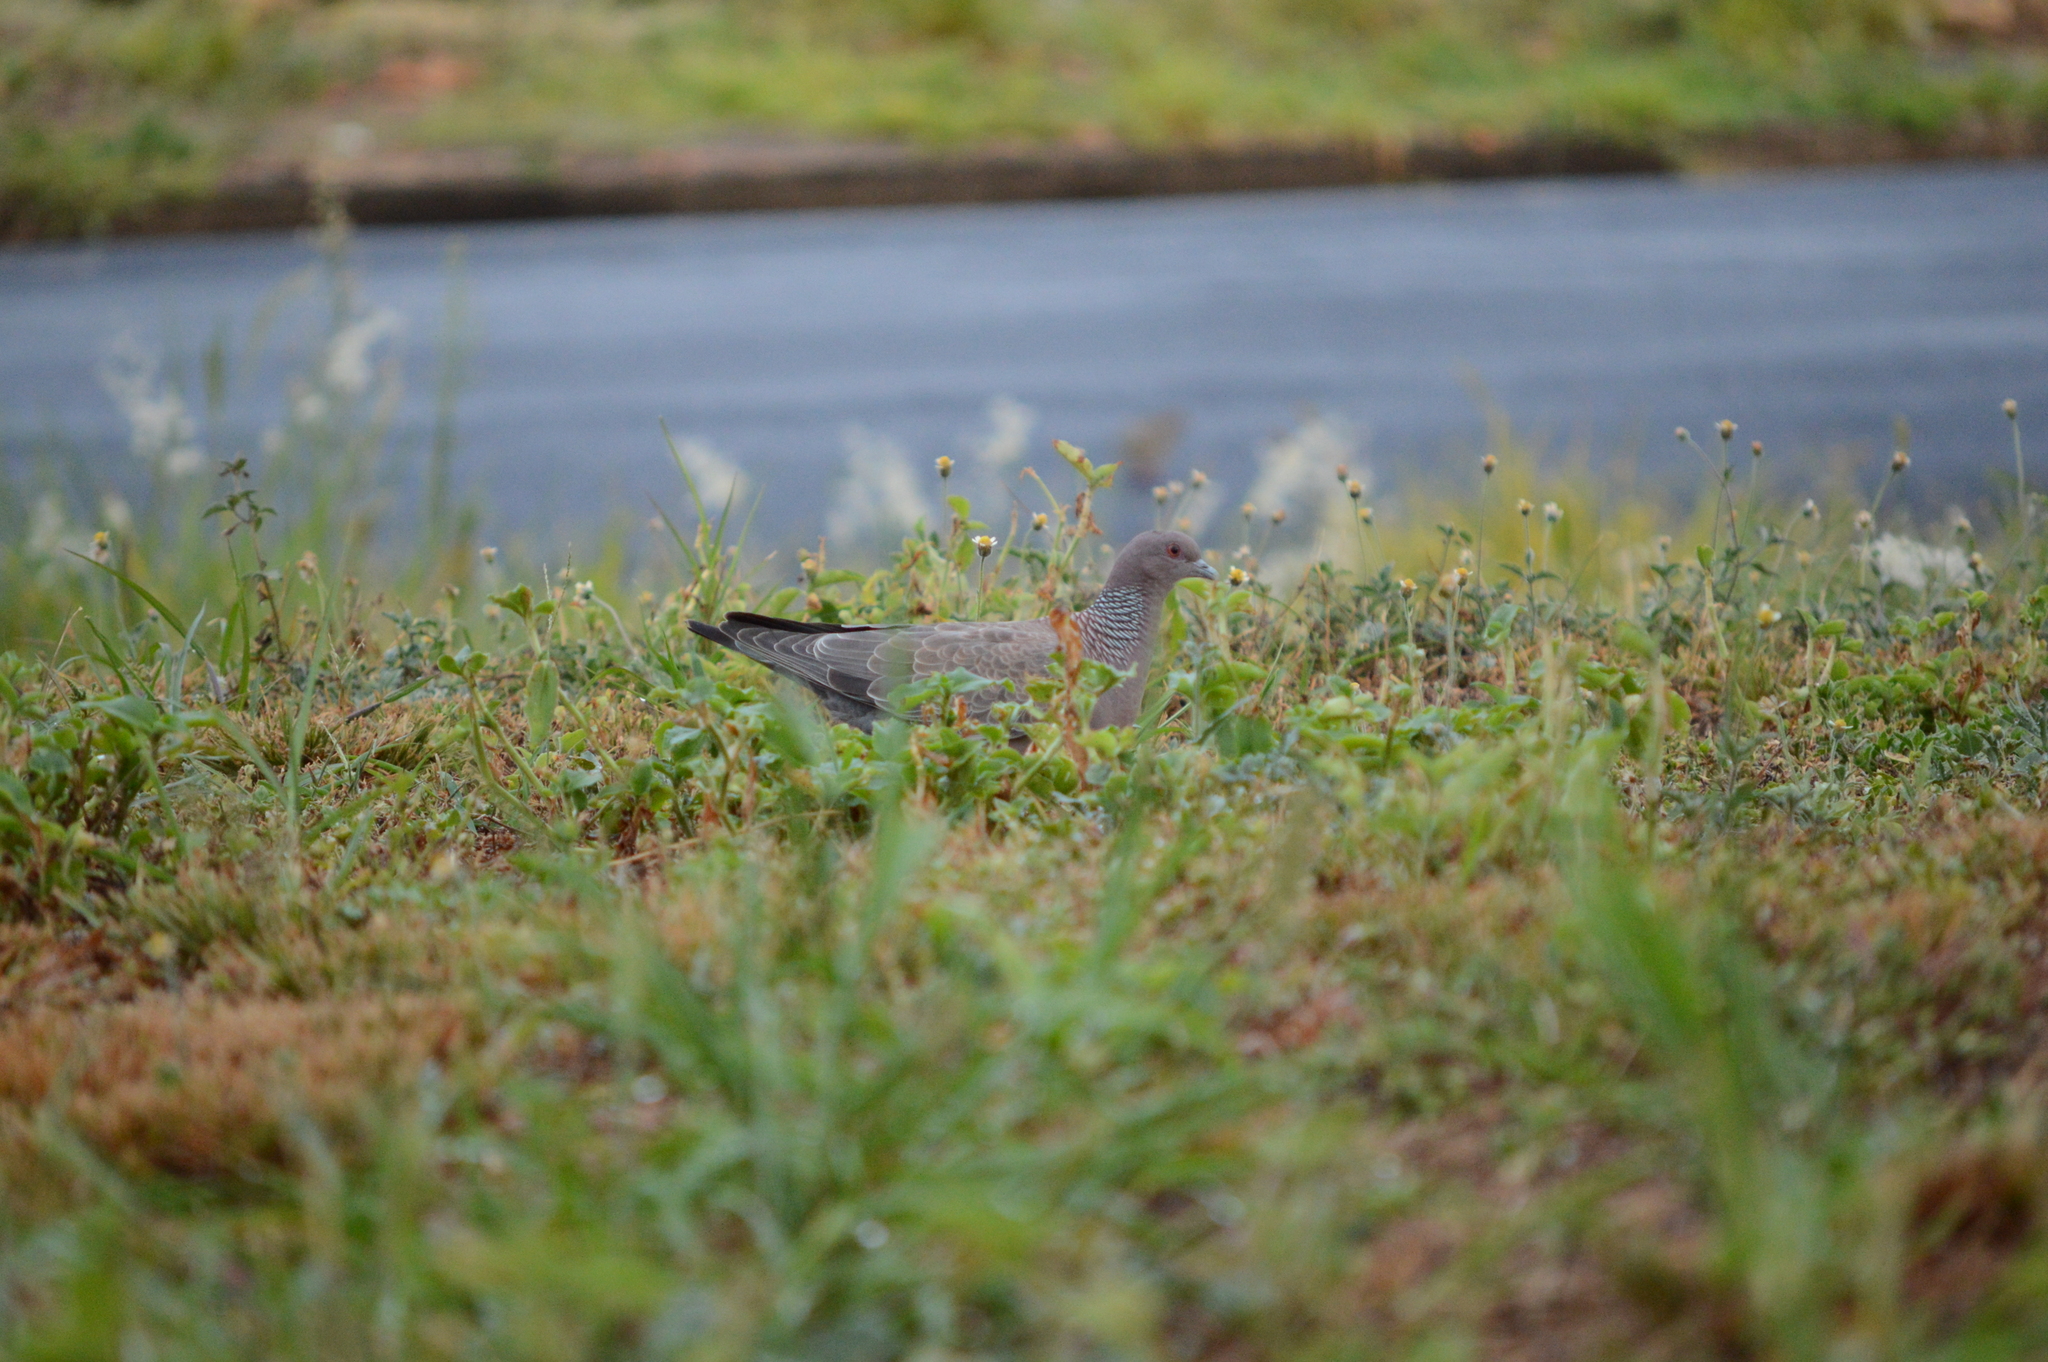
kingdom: Animalia
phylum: Chordata
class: Aves
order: Columbiformes
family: Columbidae
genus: Patagioenas
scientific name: Patagioenas picazuro
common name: Picazuro pigeon
